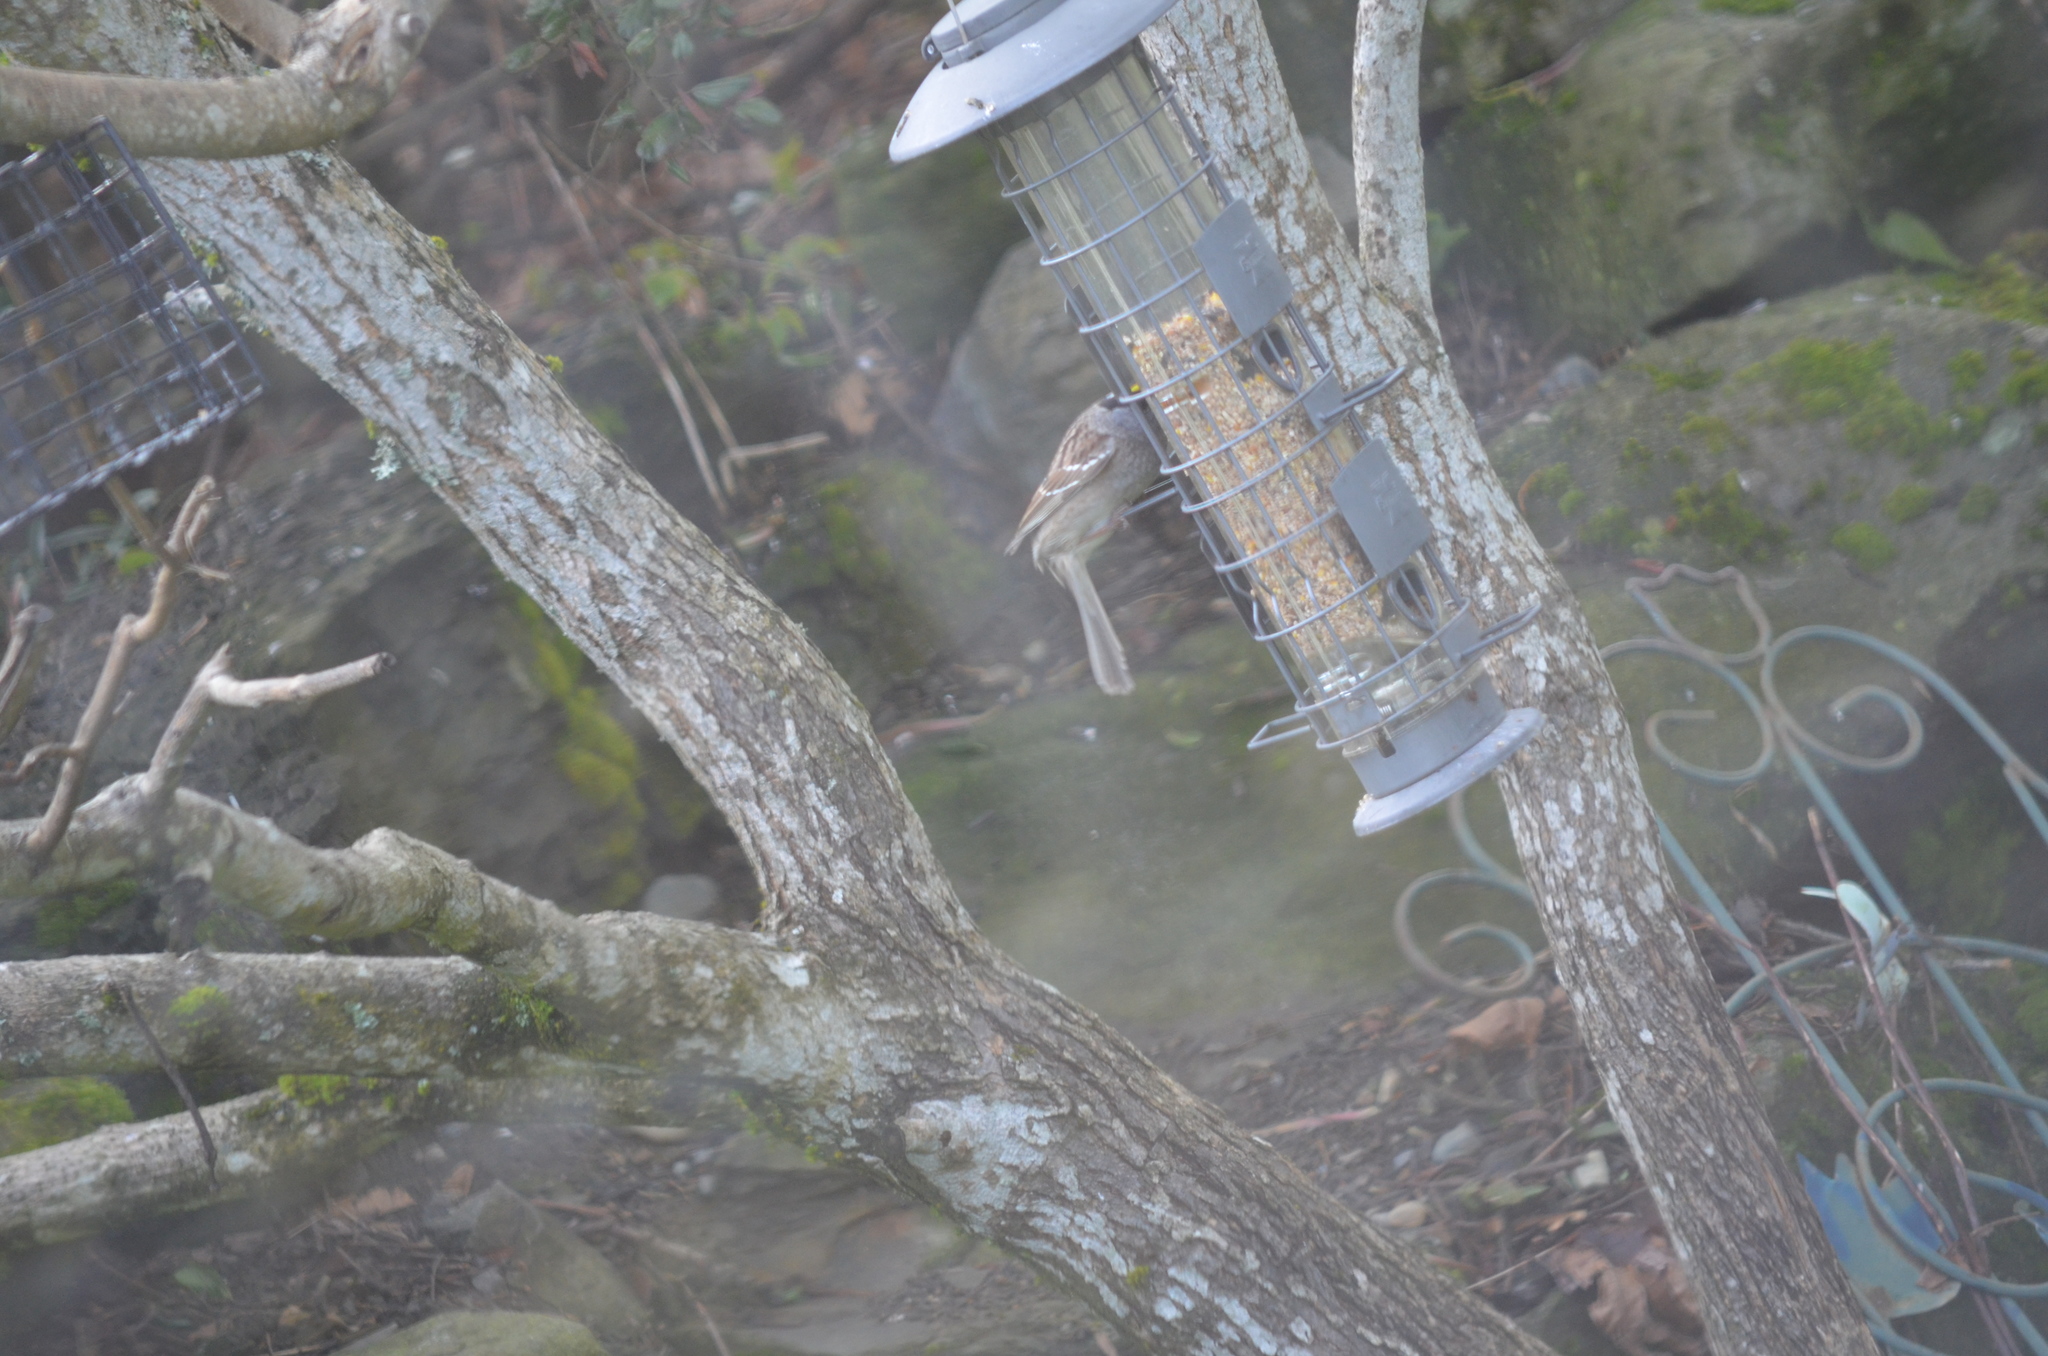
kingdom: Animalia
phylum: Chordata
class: Aves
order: Passeriformes
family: Passerellidae
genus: Zonotrichia
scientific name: Zonotrichia atricapilla
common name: Golden-crowned sparrow
